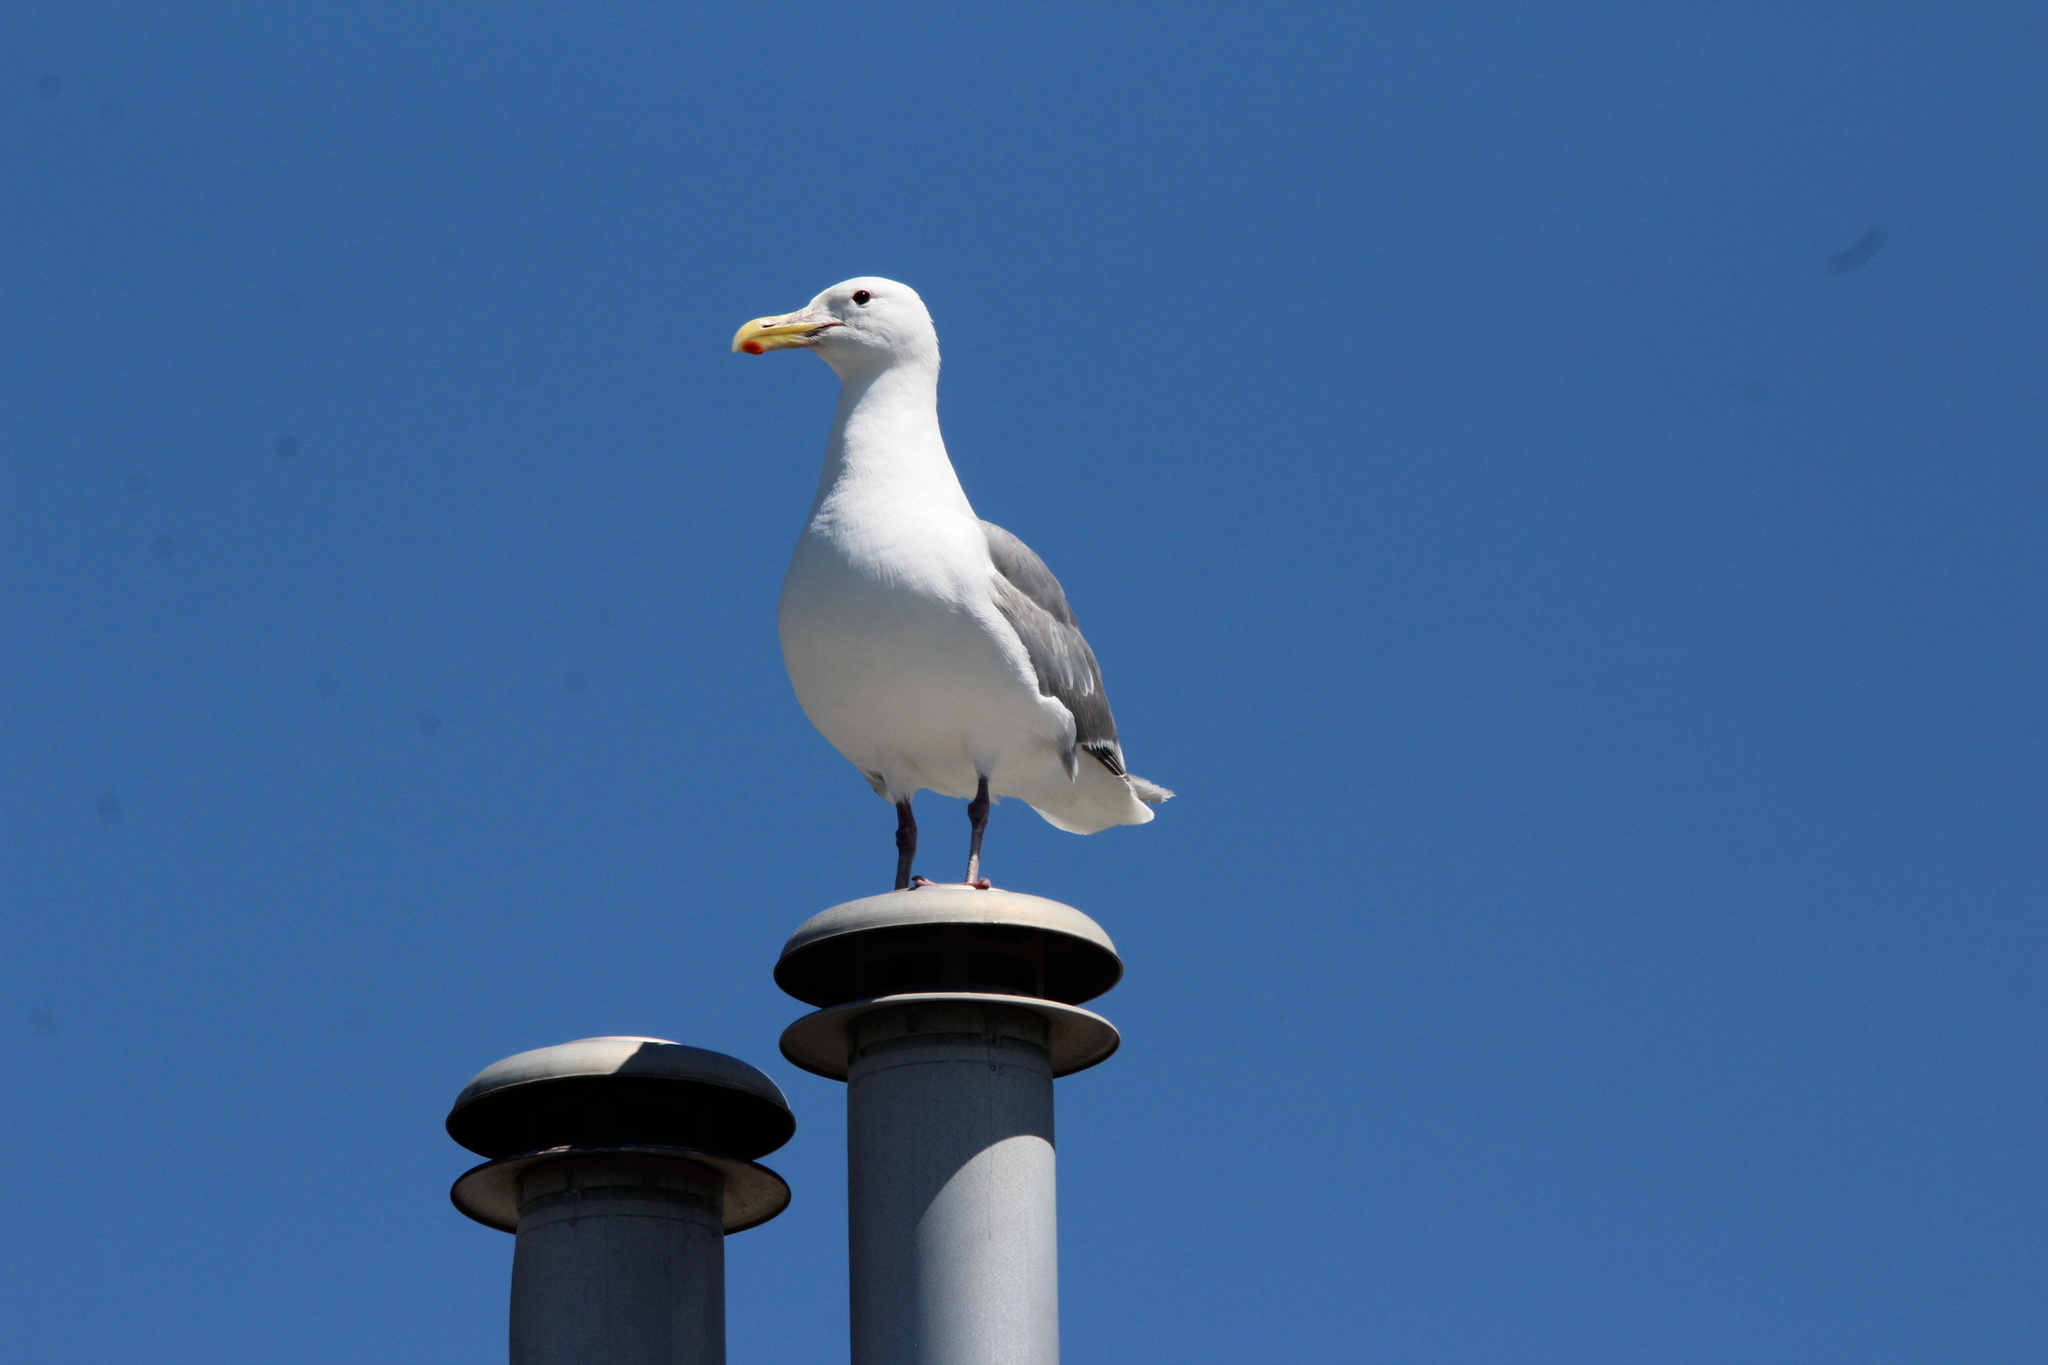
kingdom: Animalia
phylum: Chordata
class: Aves
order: Charadriiformes
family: Laridae
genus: Larus
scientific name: Larus
